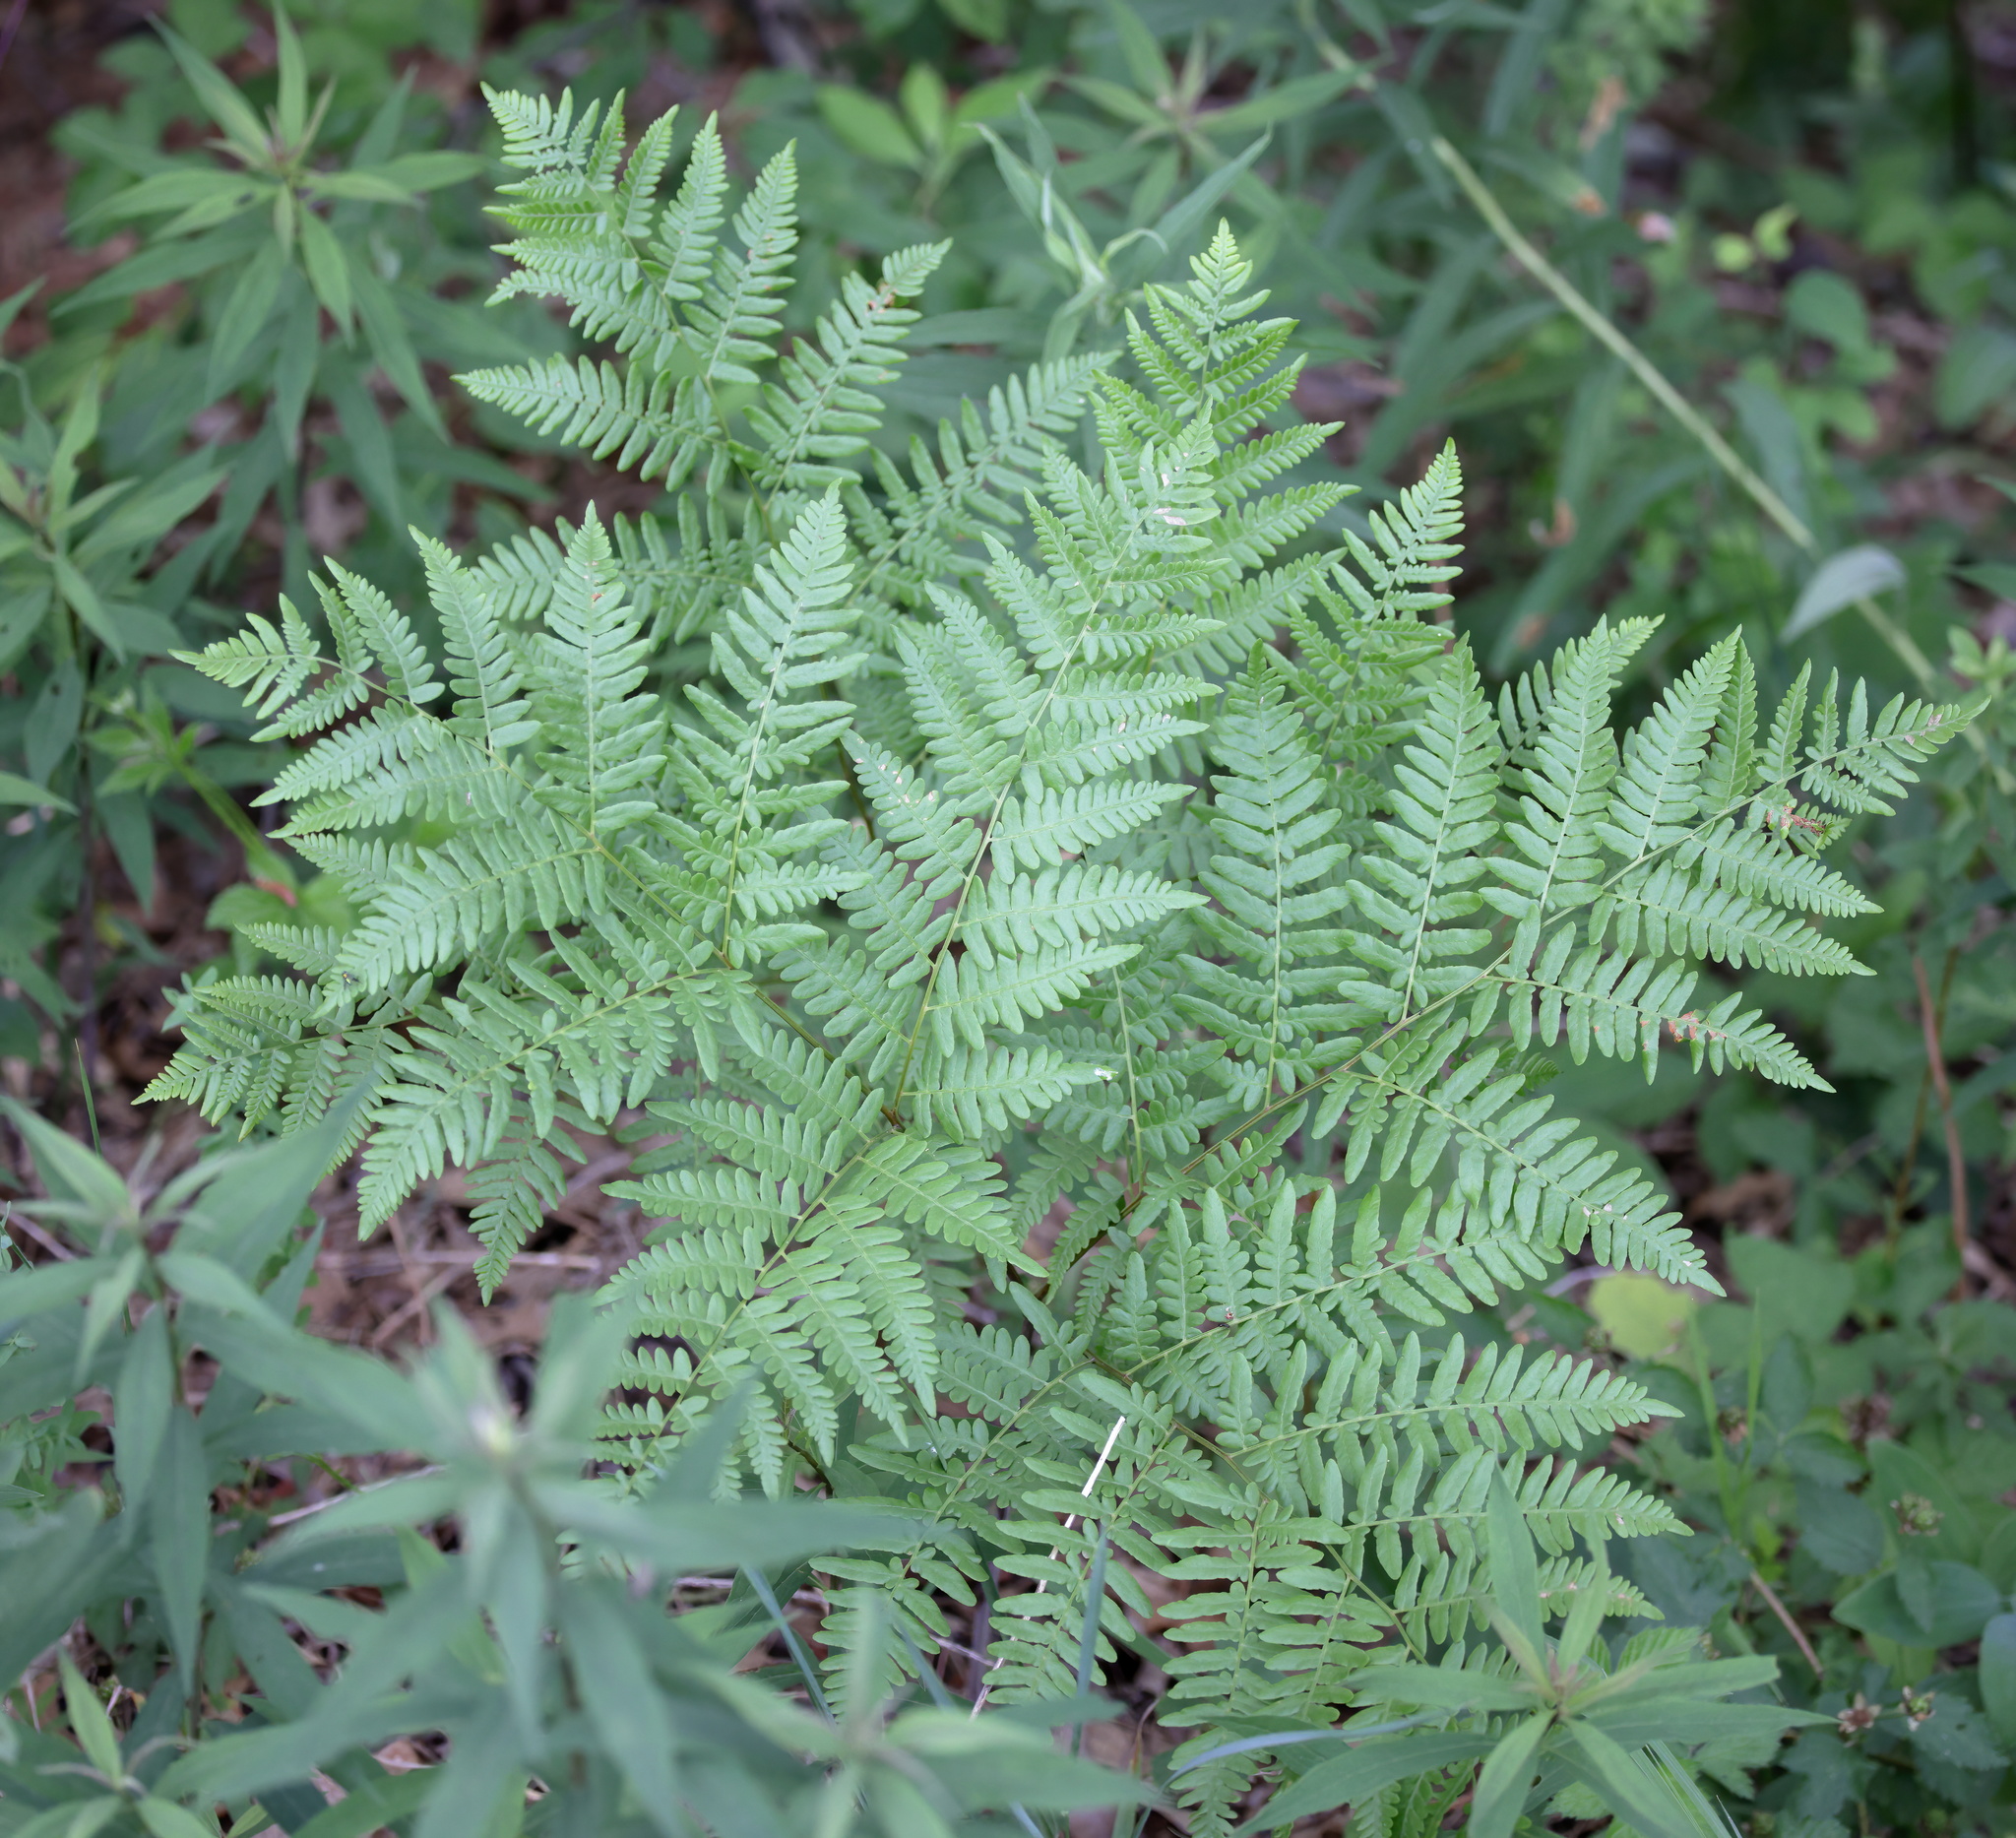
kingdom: Plantae
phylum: Tracheophyta
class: Polypodiopsida
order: Polypodiales
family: Dennstaedtiaceae
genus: Pteridium
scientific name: Pteridium aquilinum
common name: Bracken
